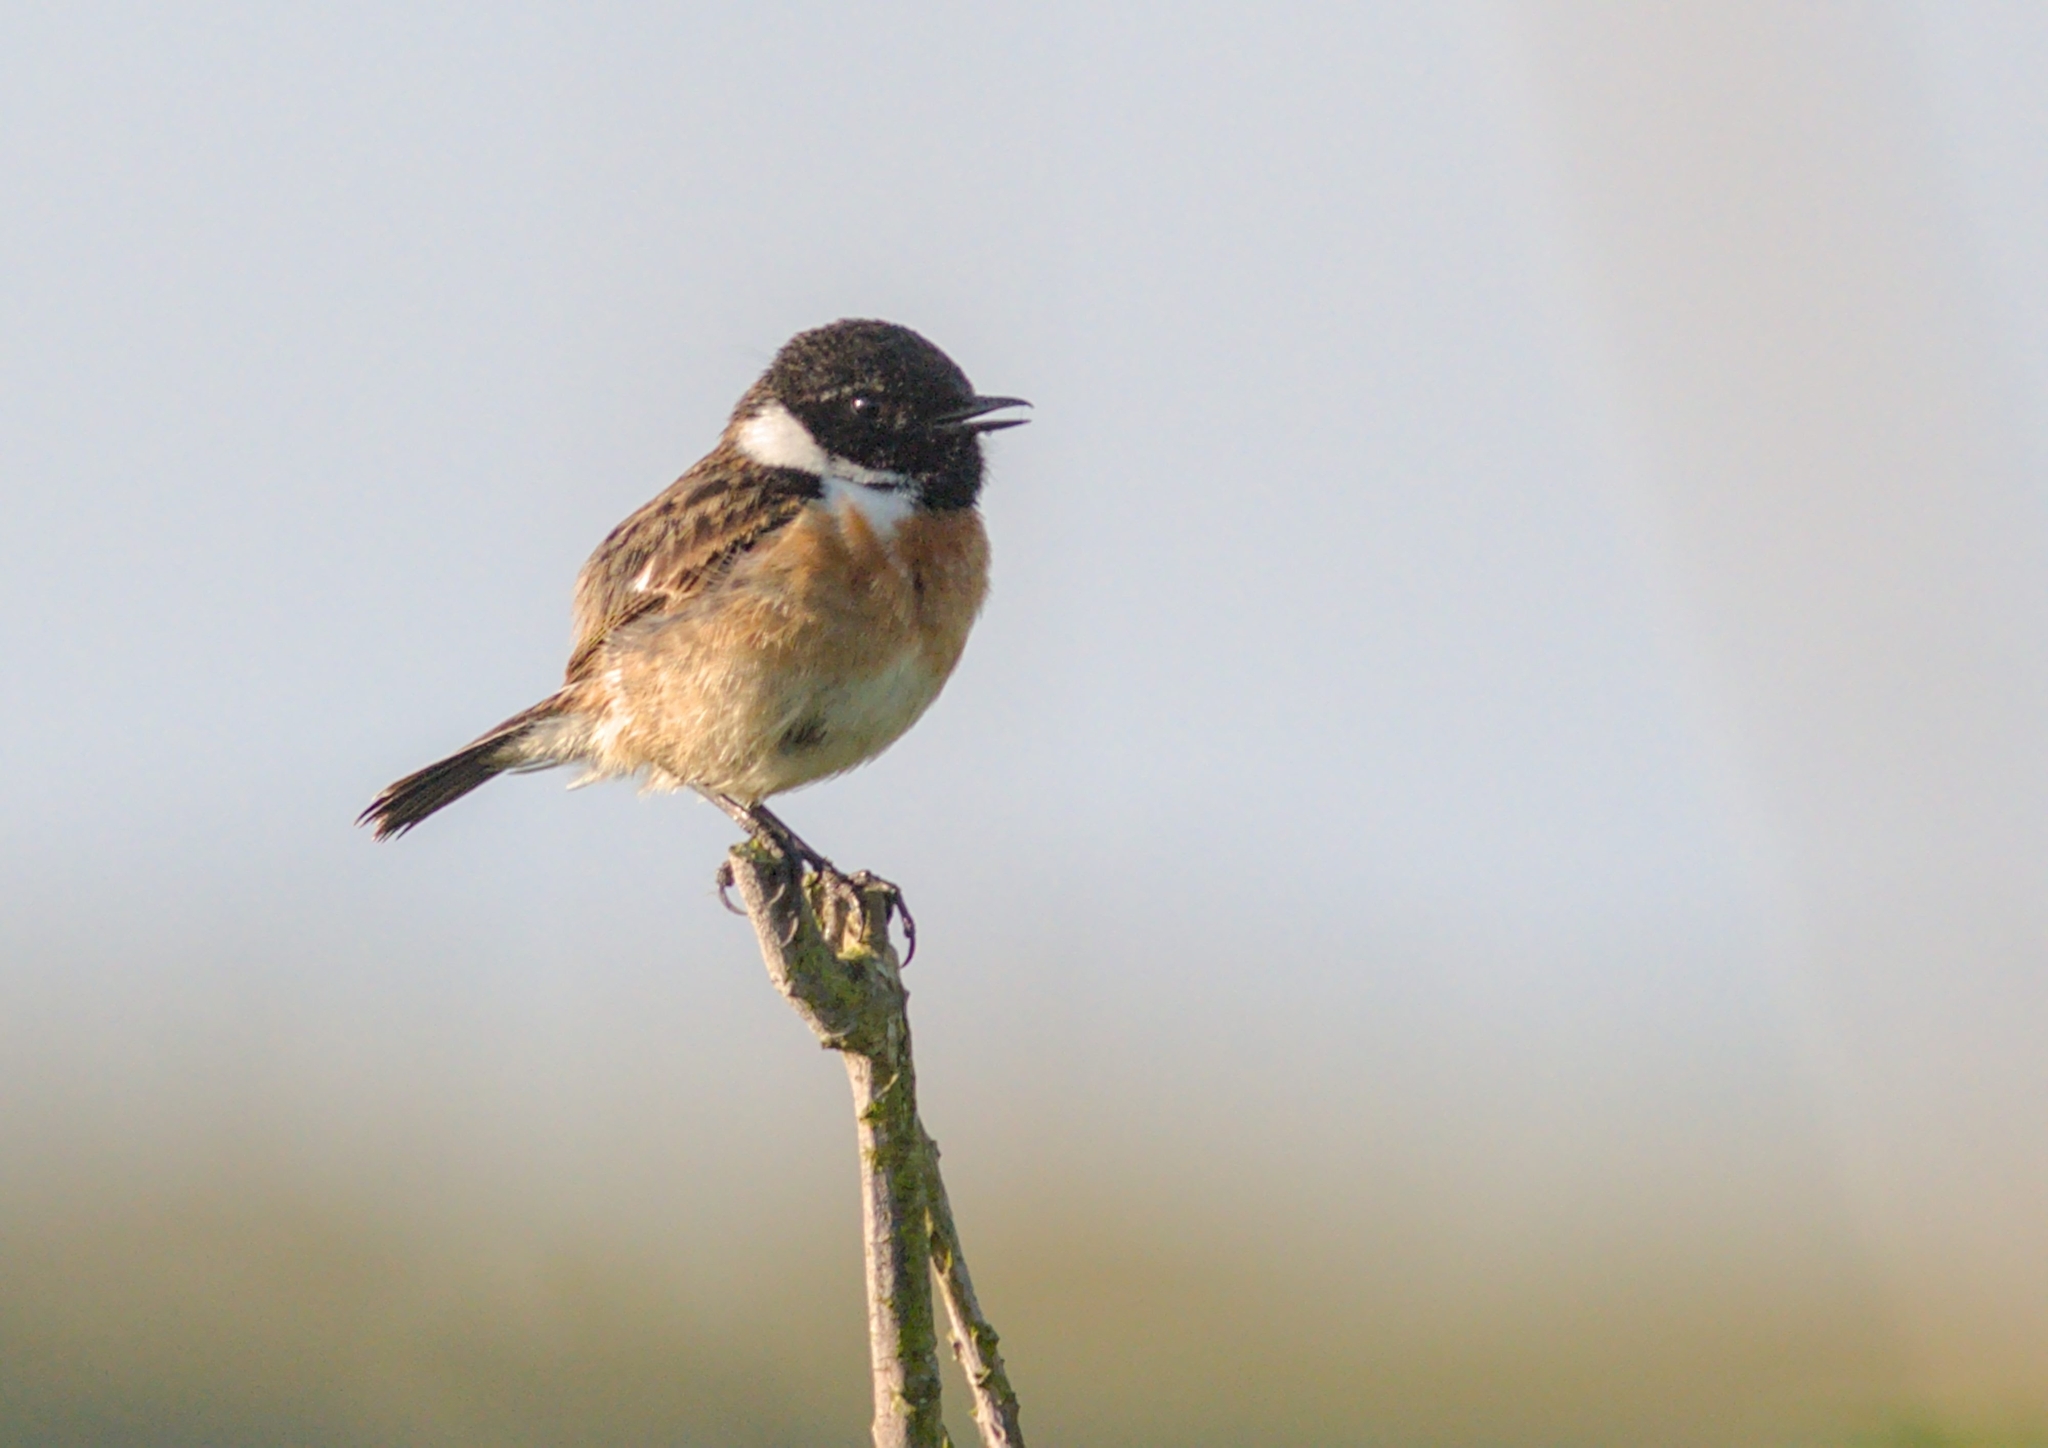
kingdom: Animalia
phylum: Chordata
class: Aves
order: Passeriformes
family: Muscicapidae
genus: Saxicola
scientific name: Saxicola rubicola
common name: European stonechat
